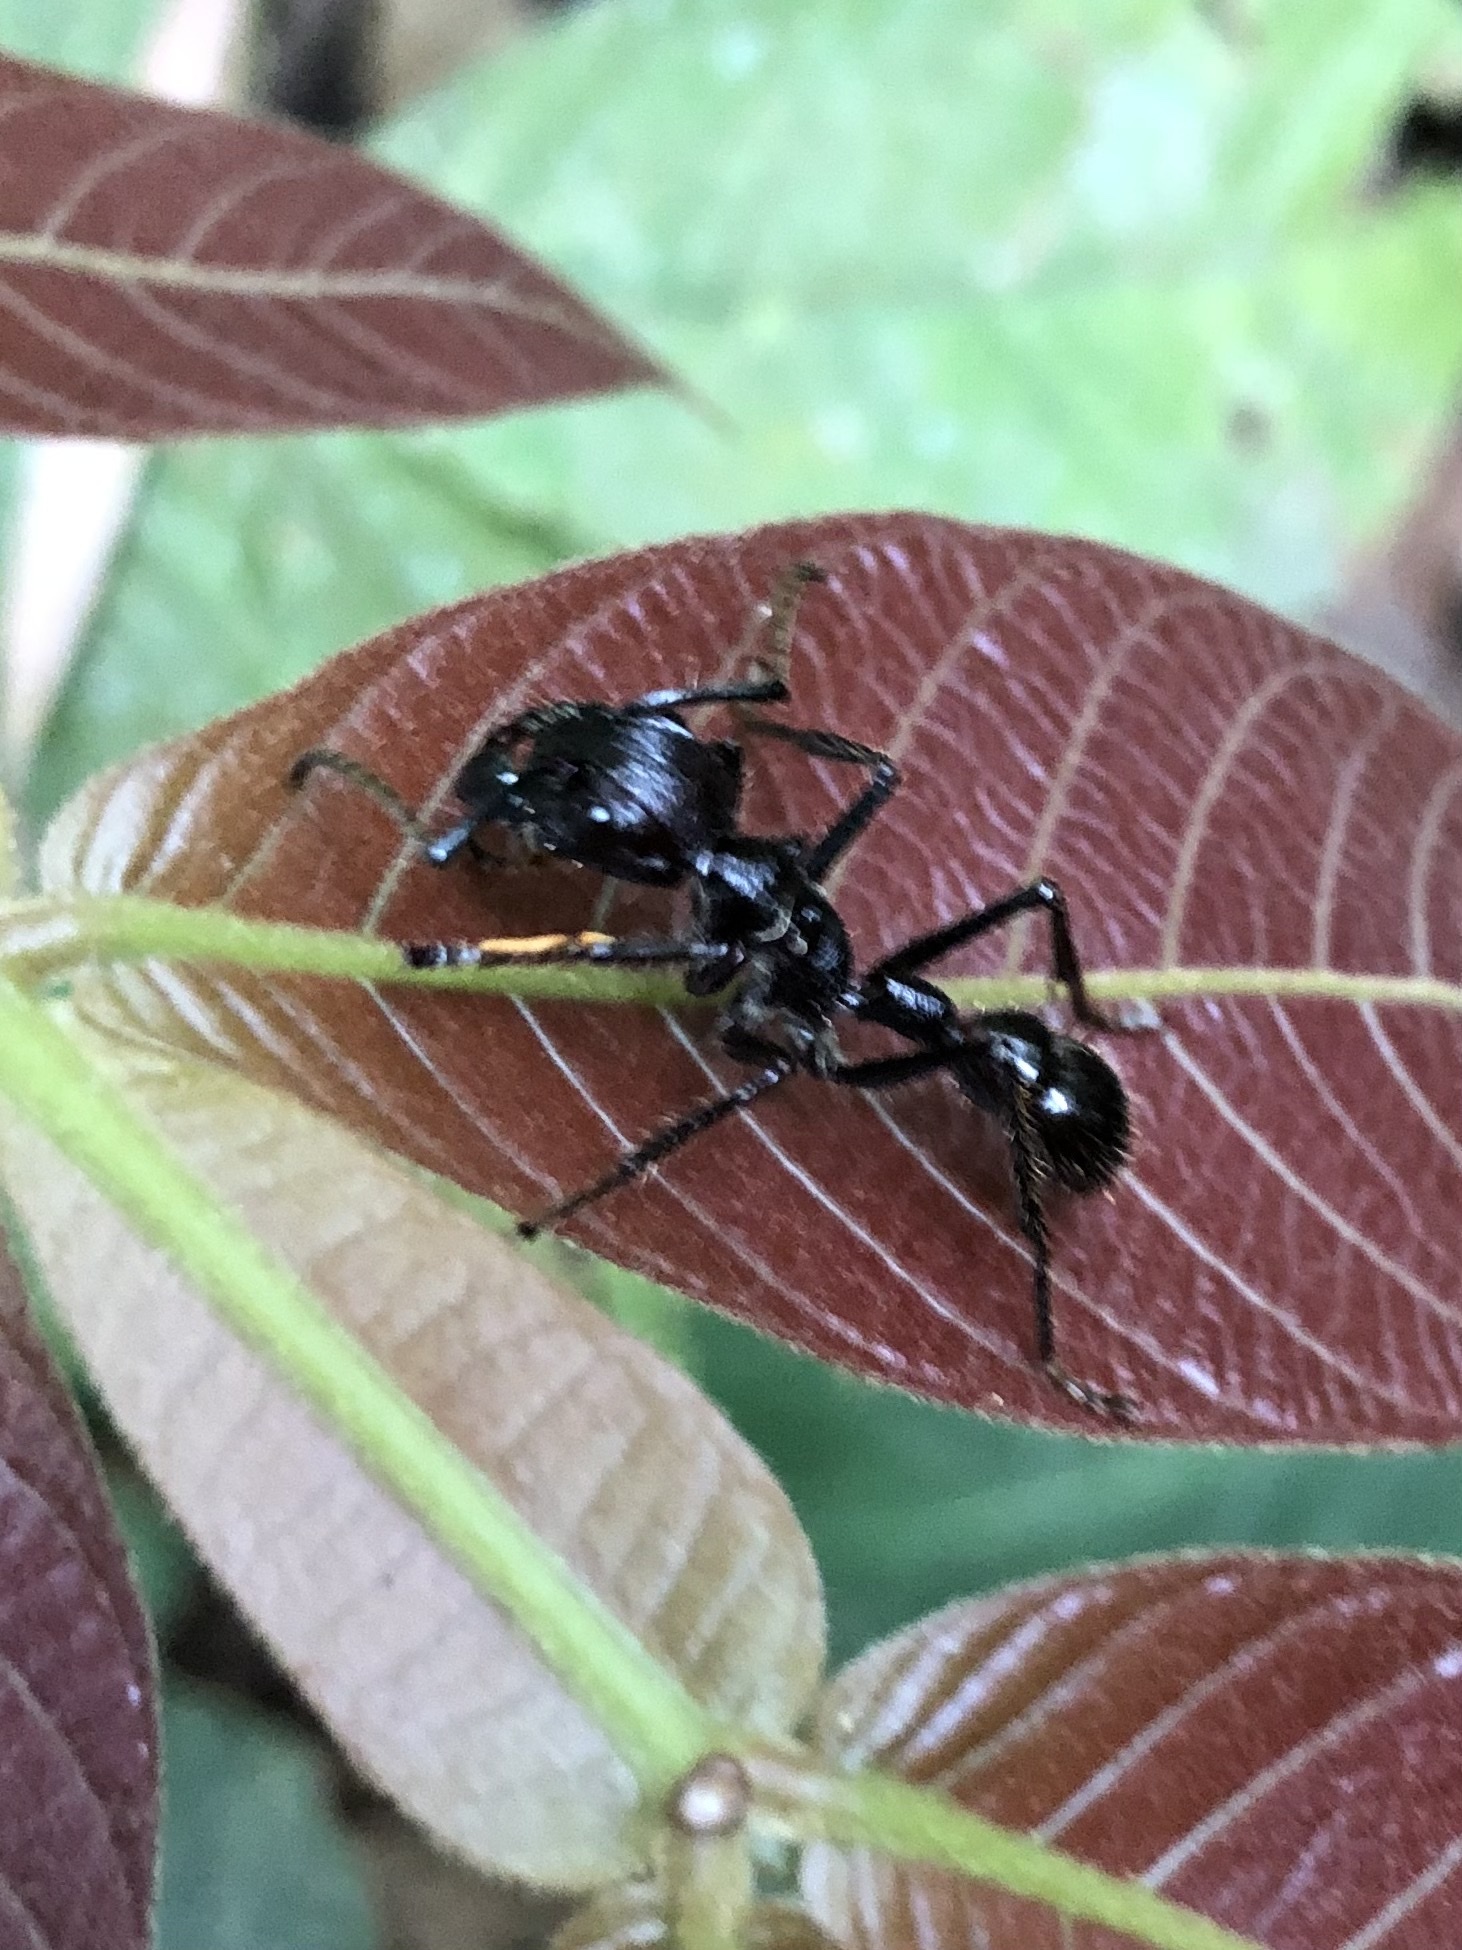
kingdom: Animalia
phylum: Arthropoda
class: Insecta
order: Hymenoptera
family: Formicidae
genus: Paraponera
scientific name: Paraponera clavata
